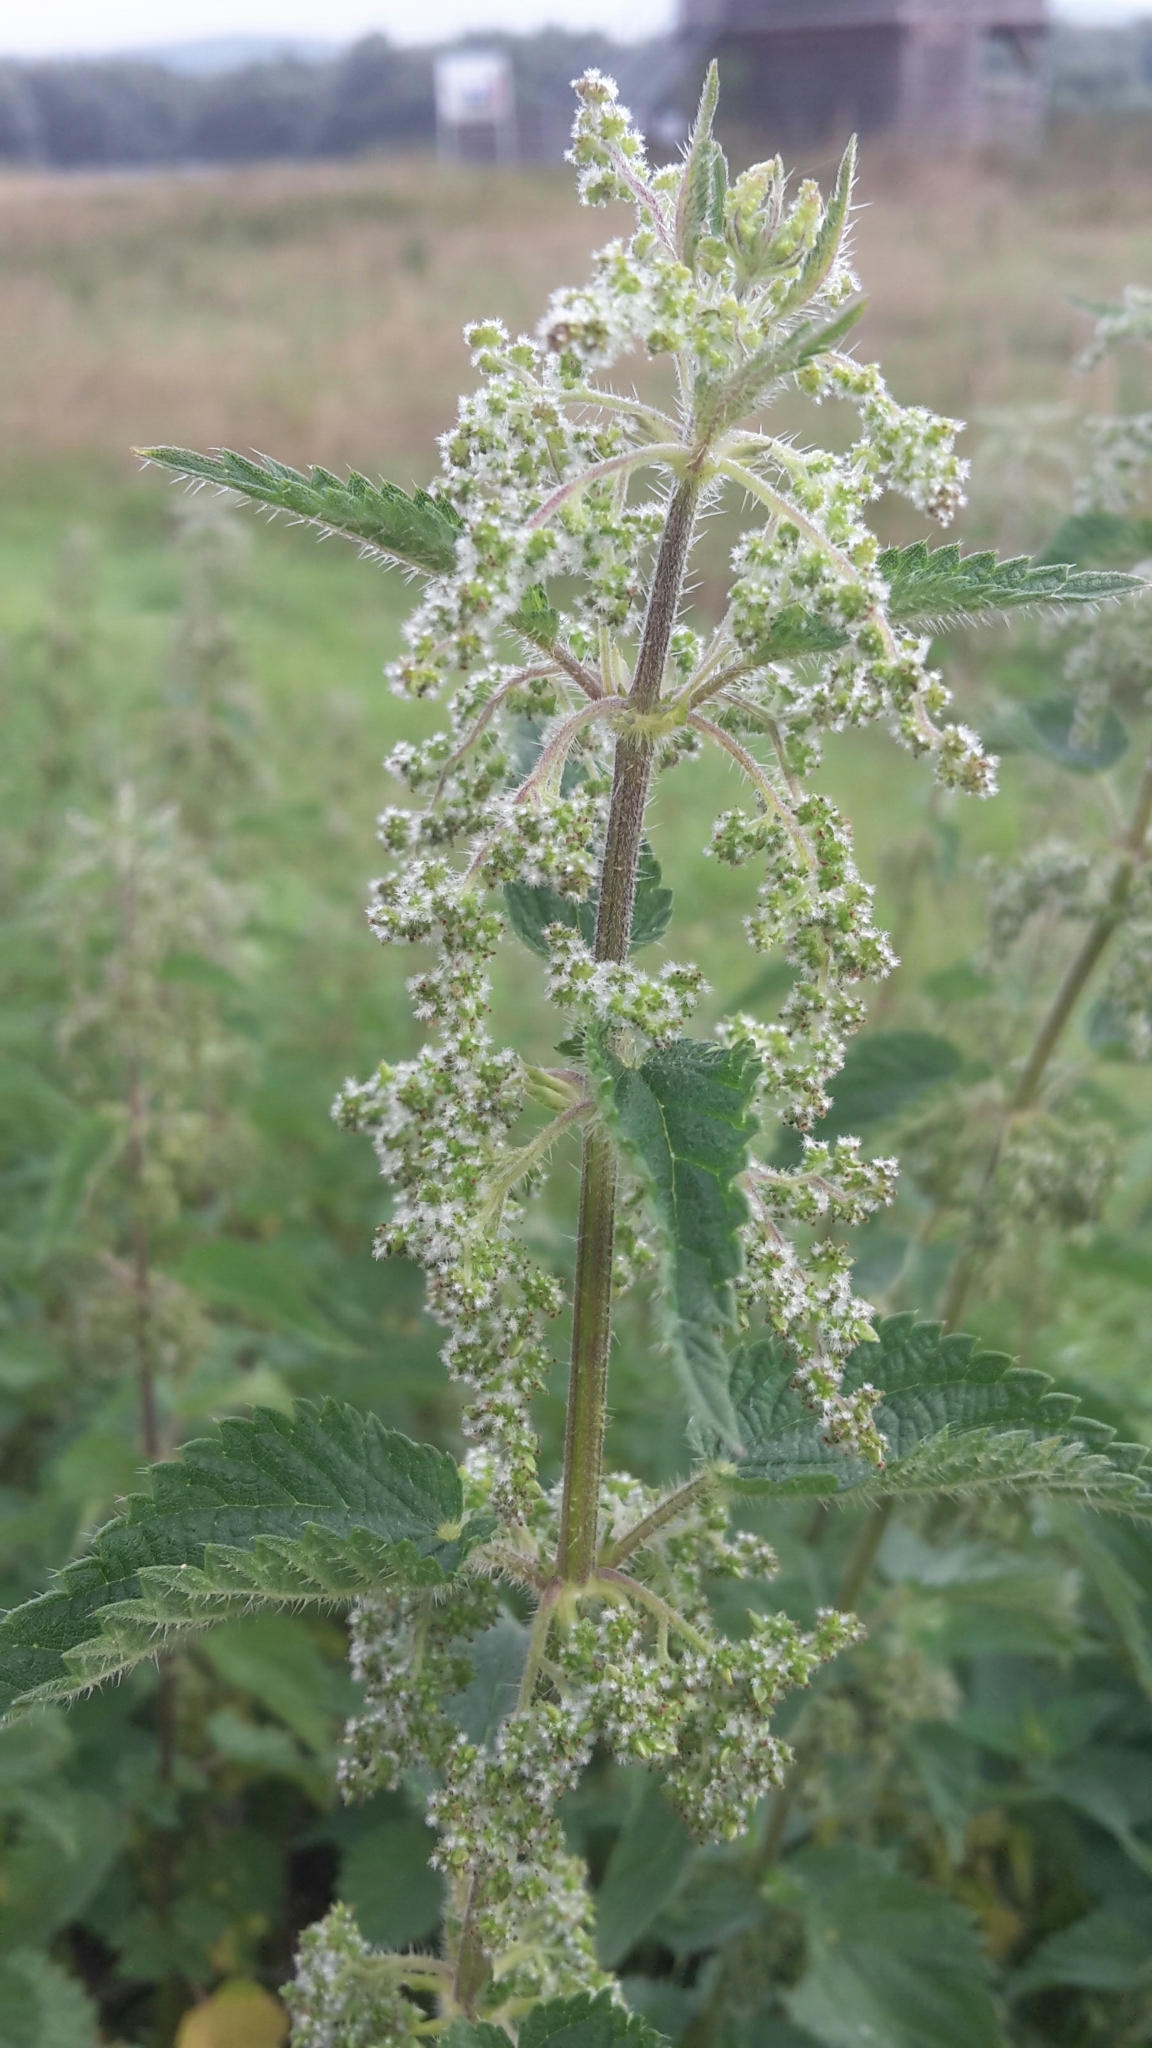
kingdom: Plantae
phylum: Tracheophyta
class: Magnoliopsida
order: Rosales
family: Urticaceae
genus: Urtica
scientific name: Urtica dioica
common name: Common nettle
